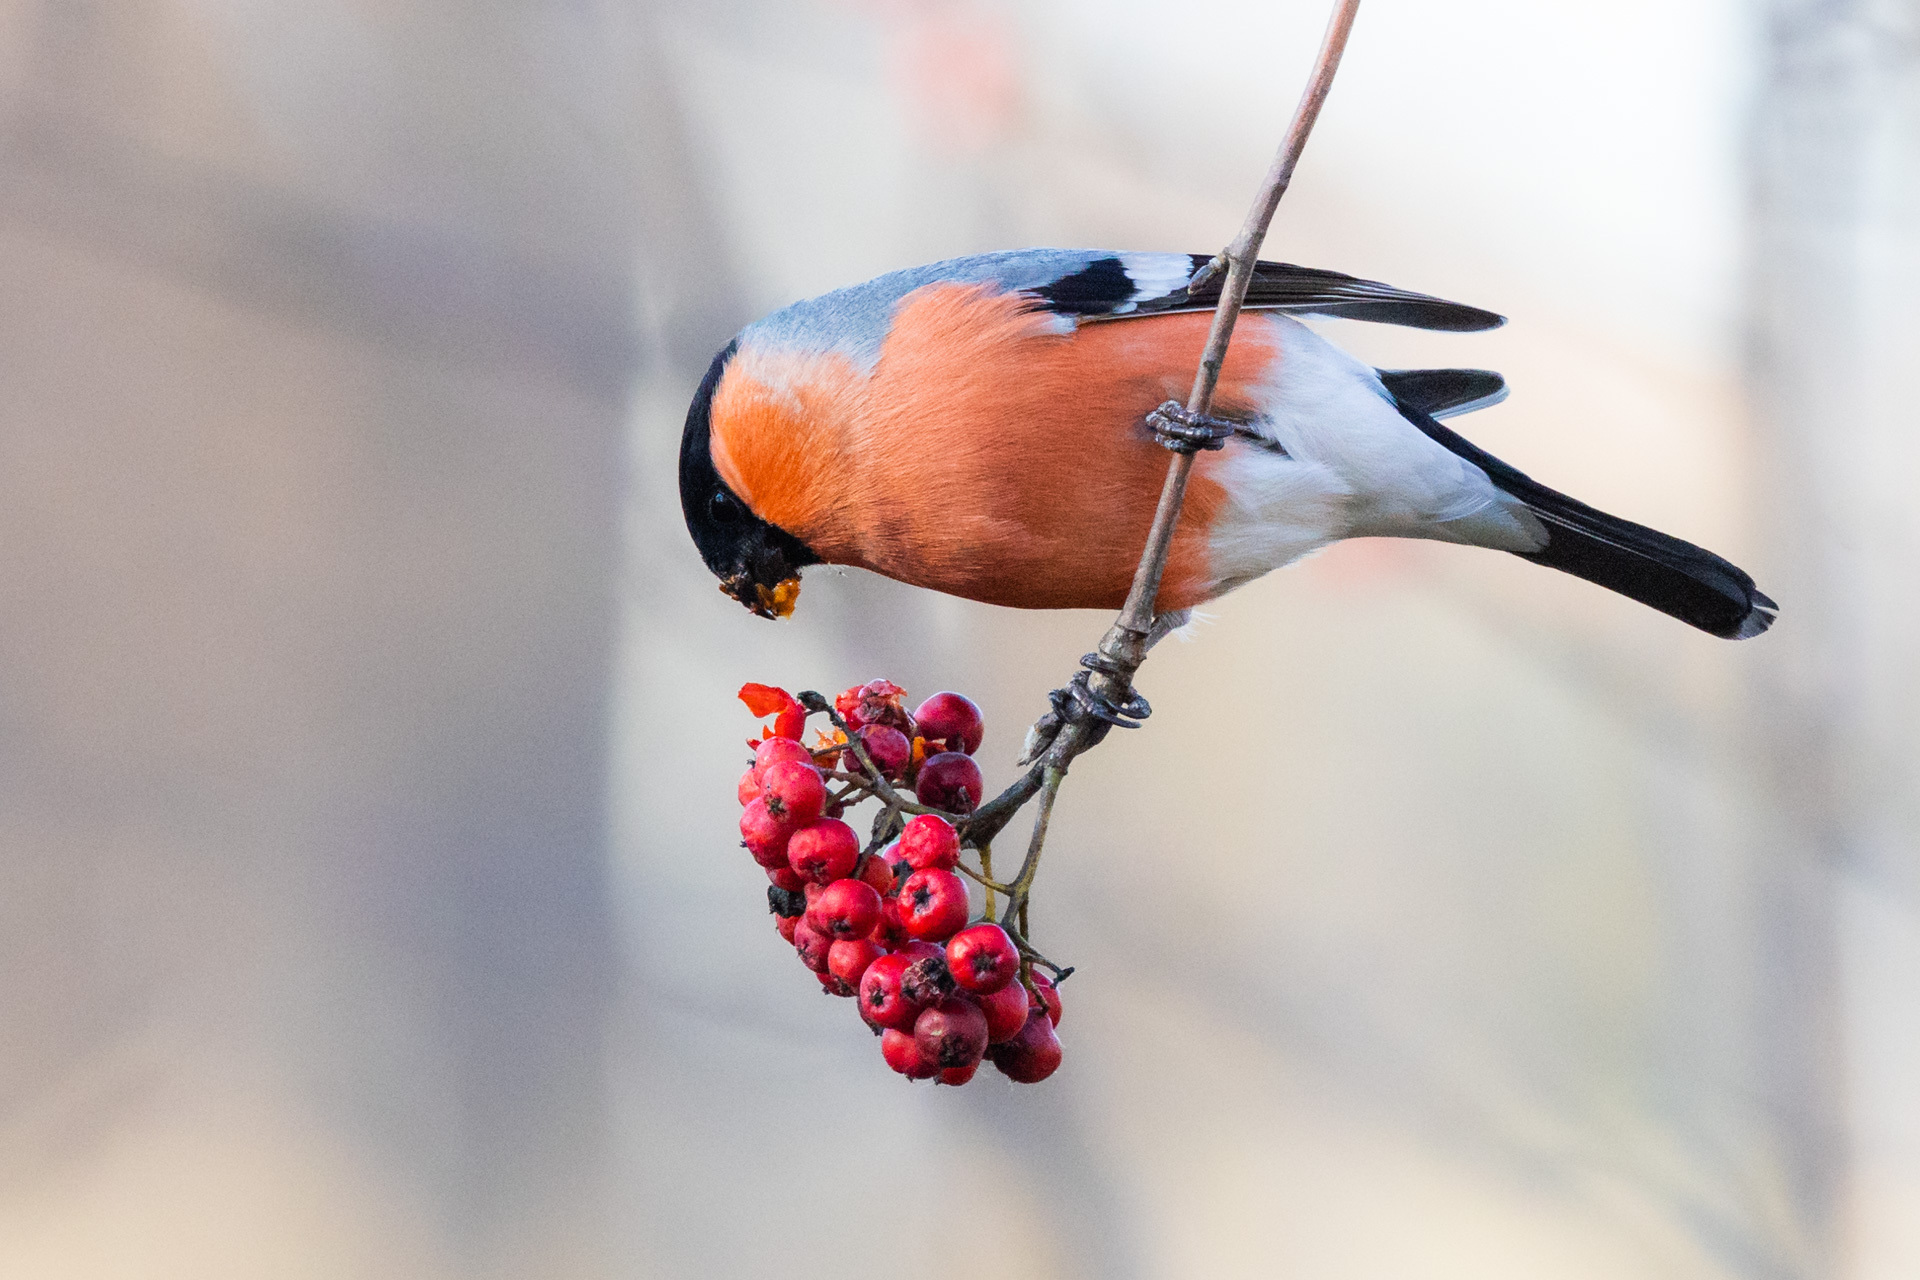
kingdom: Animalia
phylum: Chordata
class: Aves
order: Passeriformes
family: Fringillidae
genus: Pyrrhula
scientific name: Pyrrhula pyrrhula
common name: Eurasian bullfinch
